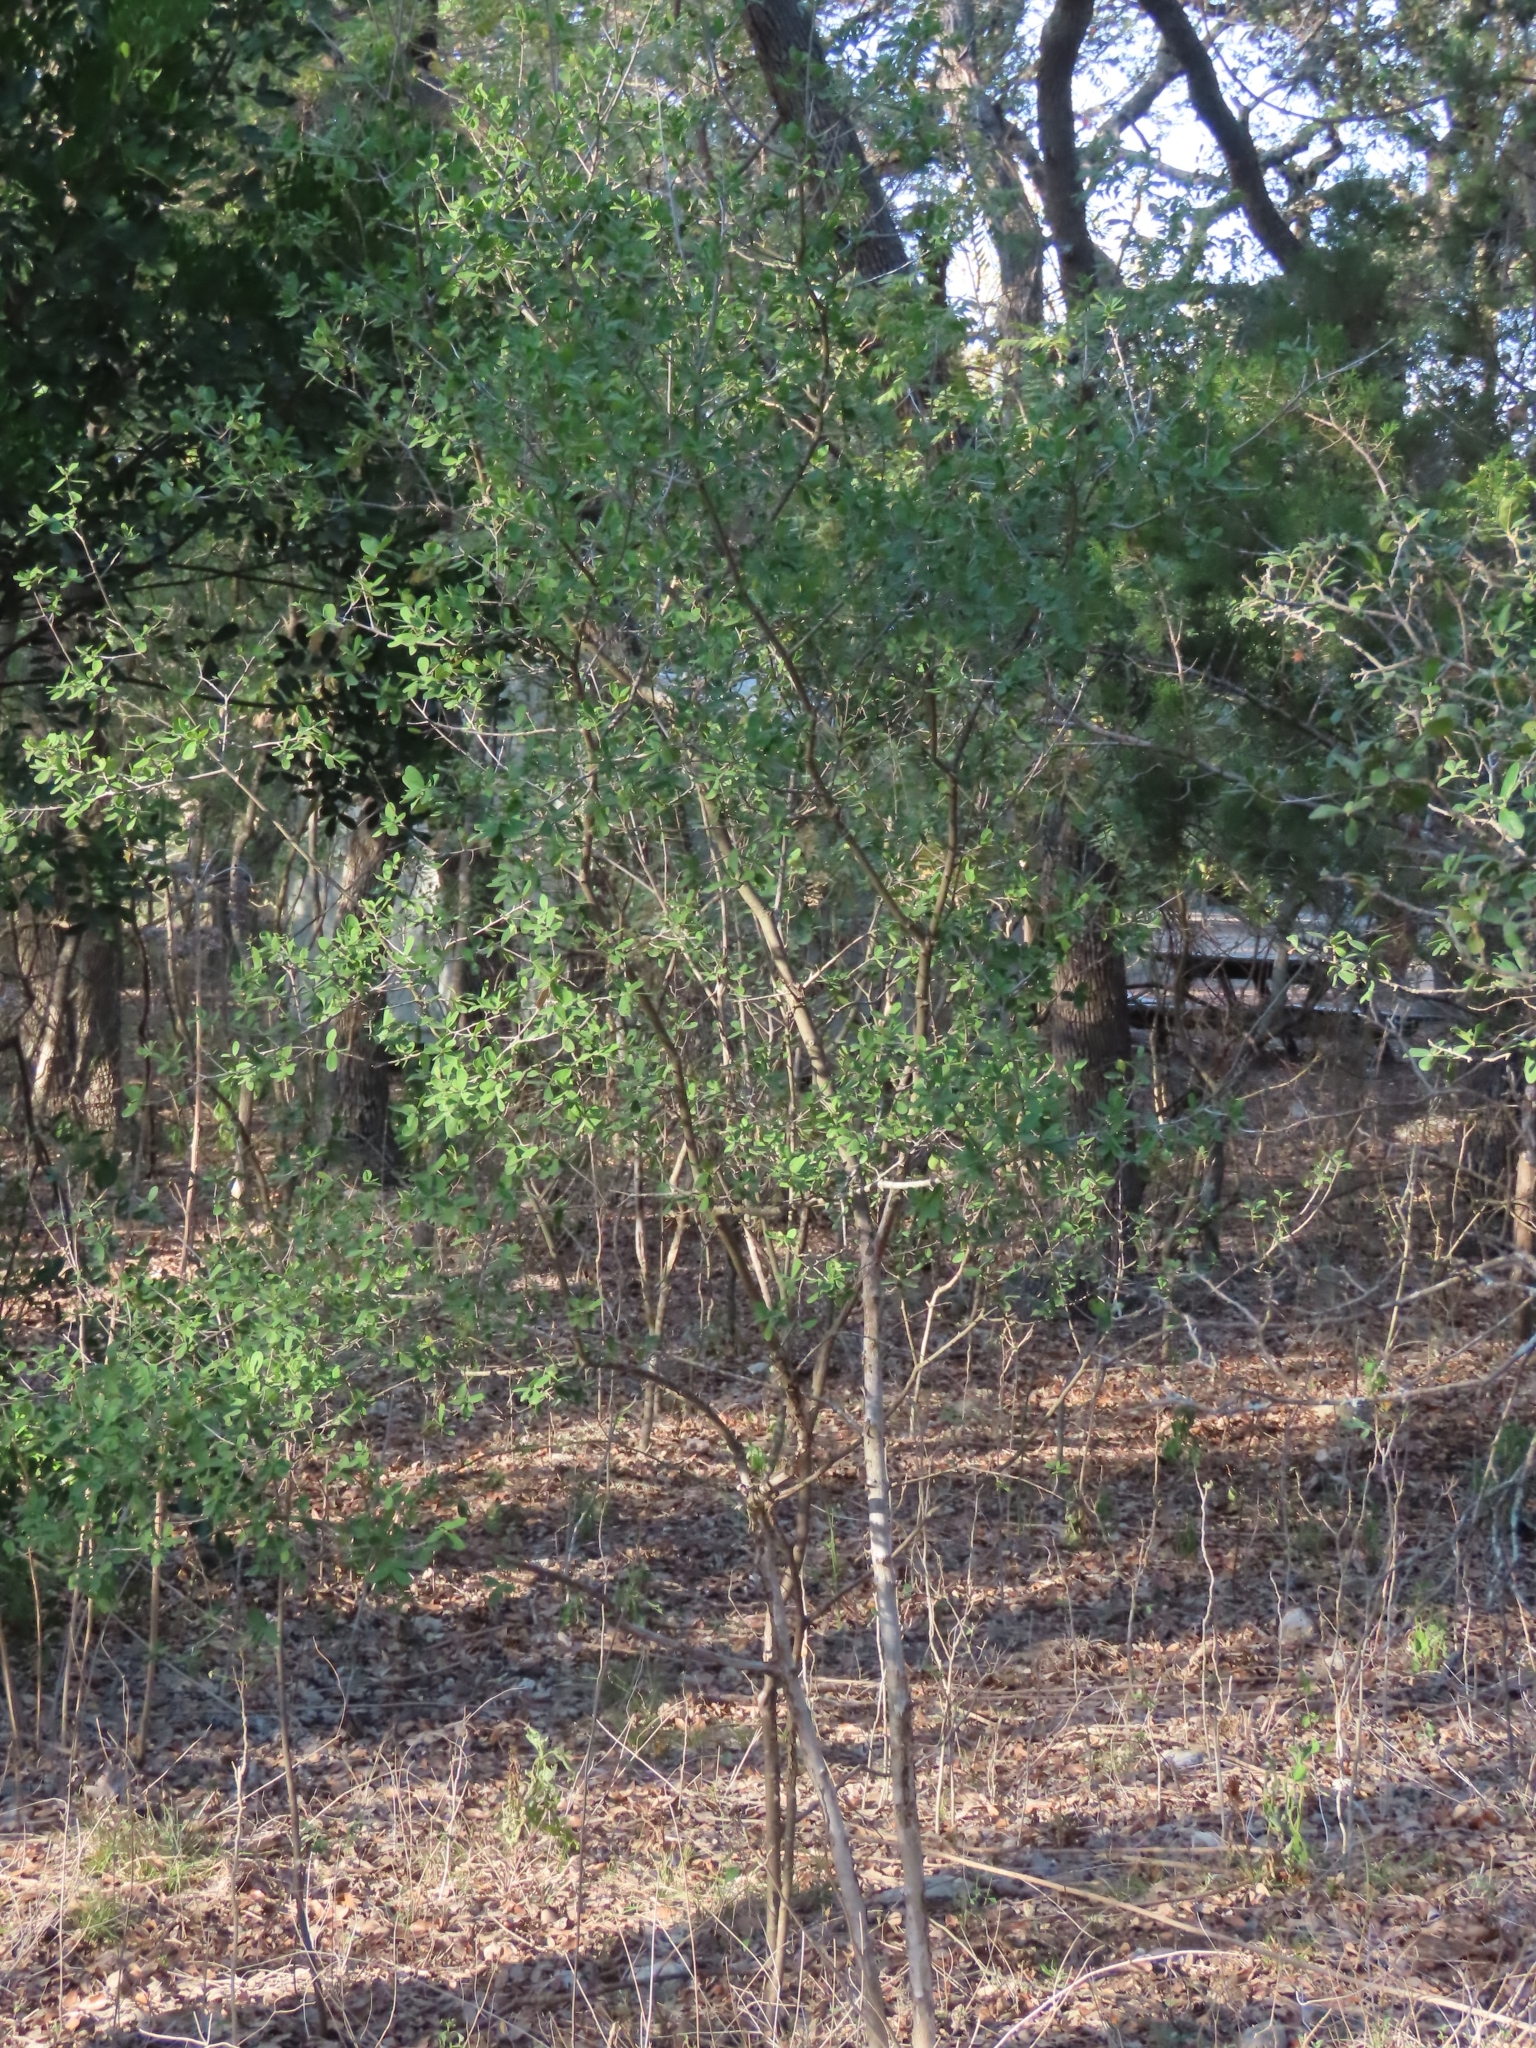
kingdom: Plantae
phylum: Tracheophyta
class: Magnoliopsida
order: Ericales
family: Ebenaceae
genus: Diospyros
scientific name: Diospyros texana
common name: Texas persimmon
